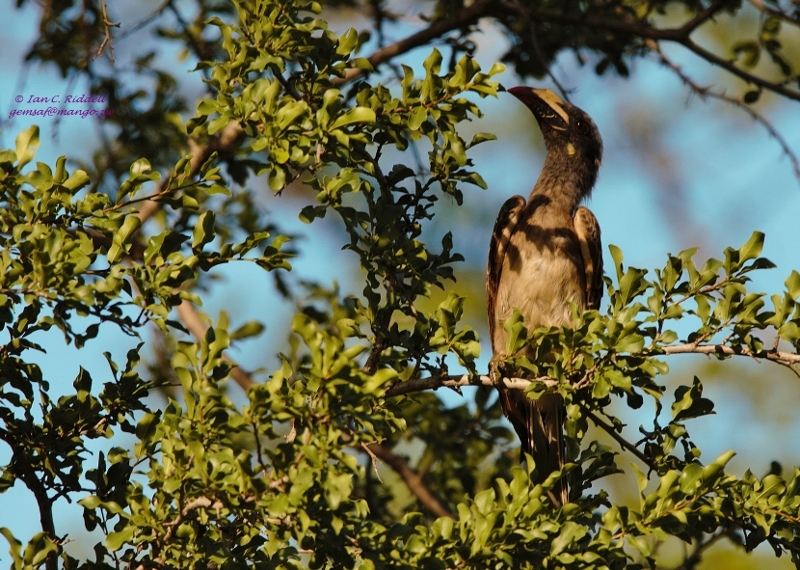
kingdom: Animalia
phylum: Chordata
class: Aves
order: Bucerotiformes
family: Bucerotidae
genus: Lophoceros
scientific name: Lophoceros nasutus
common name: African grey hornbill
